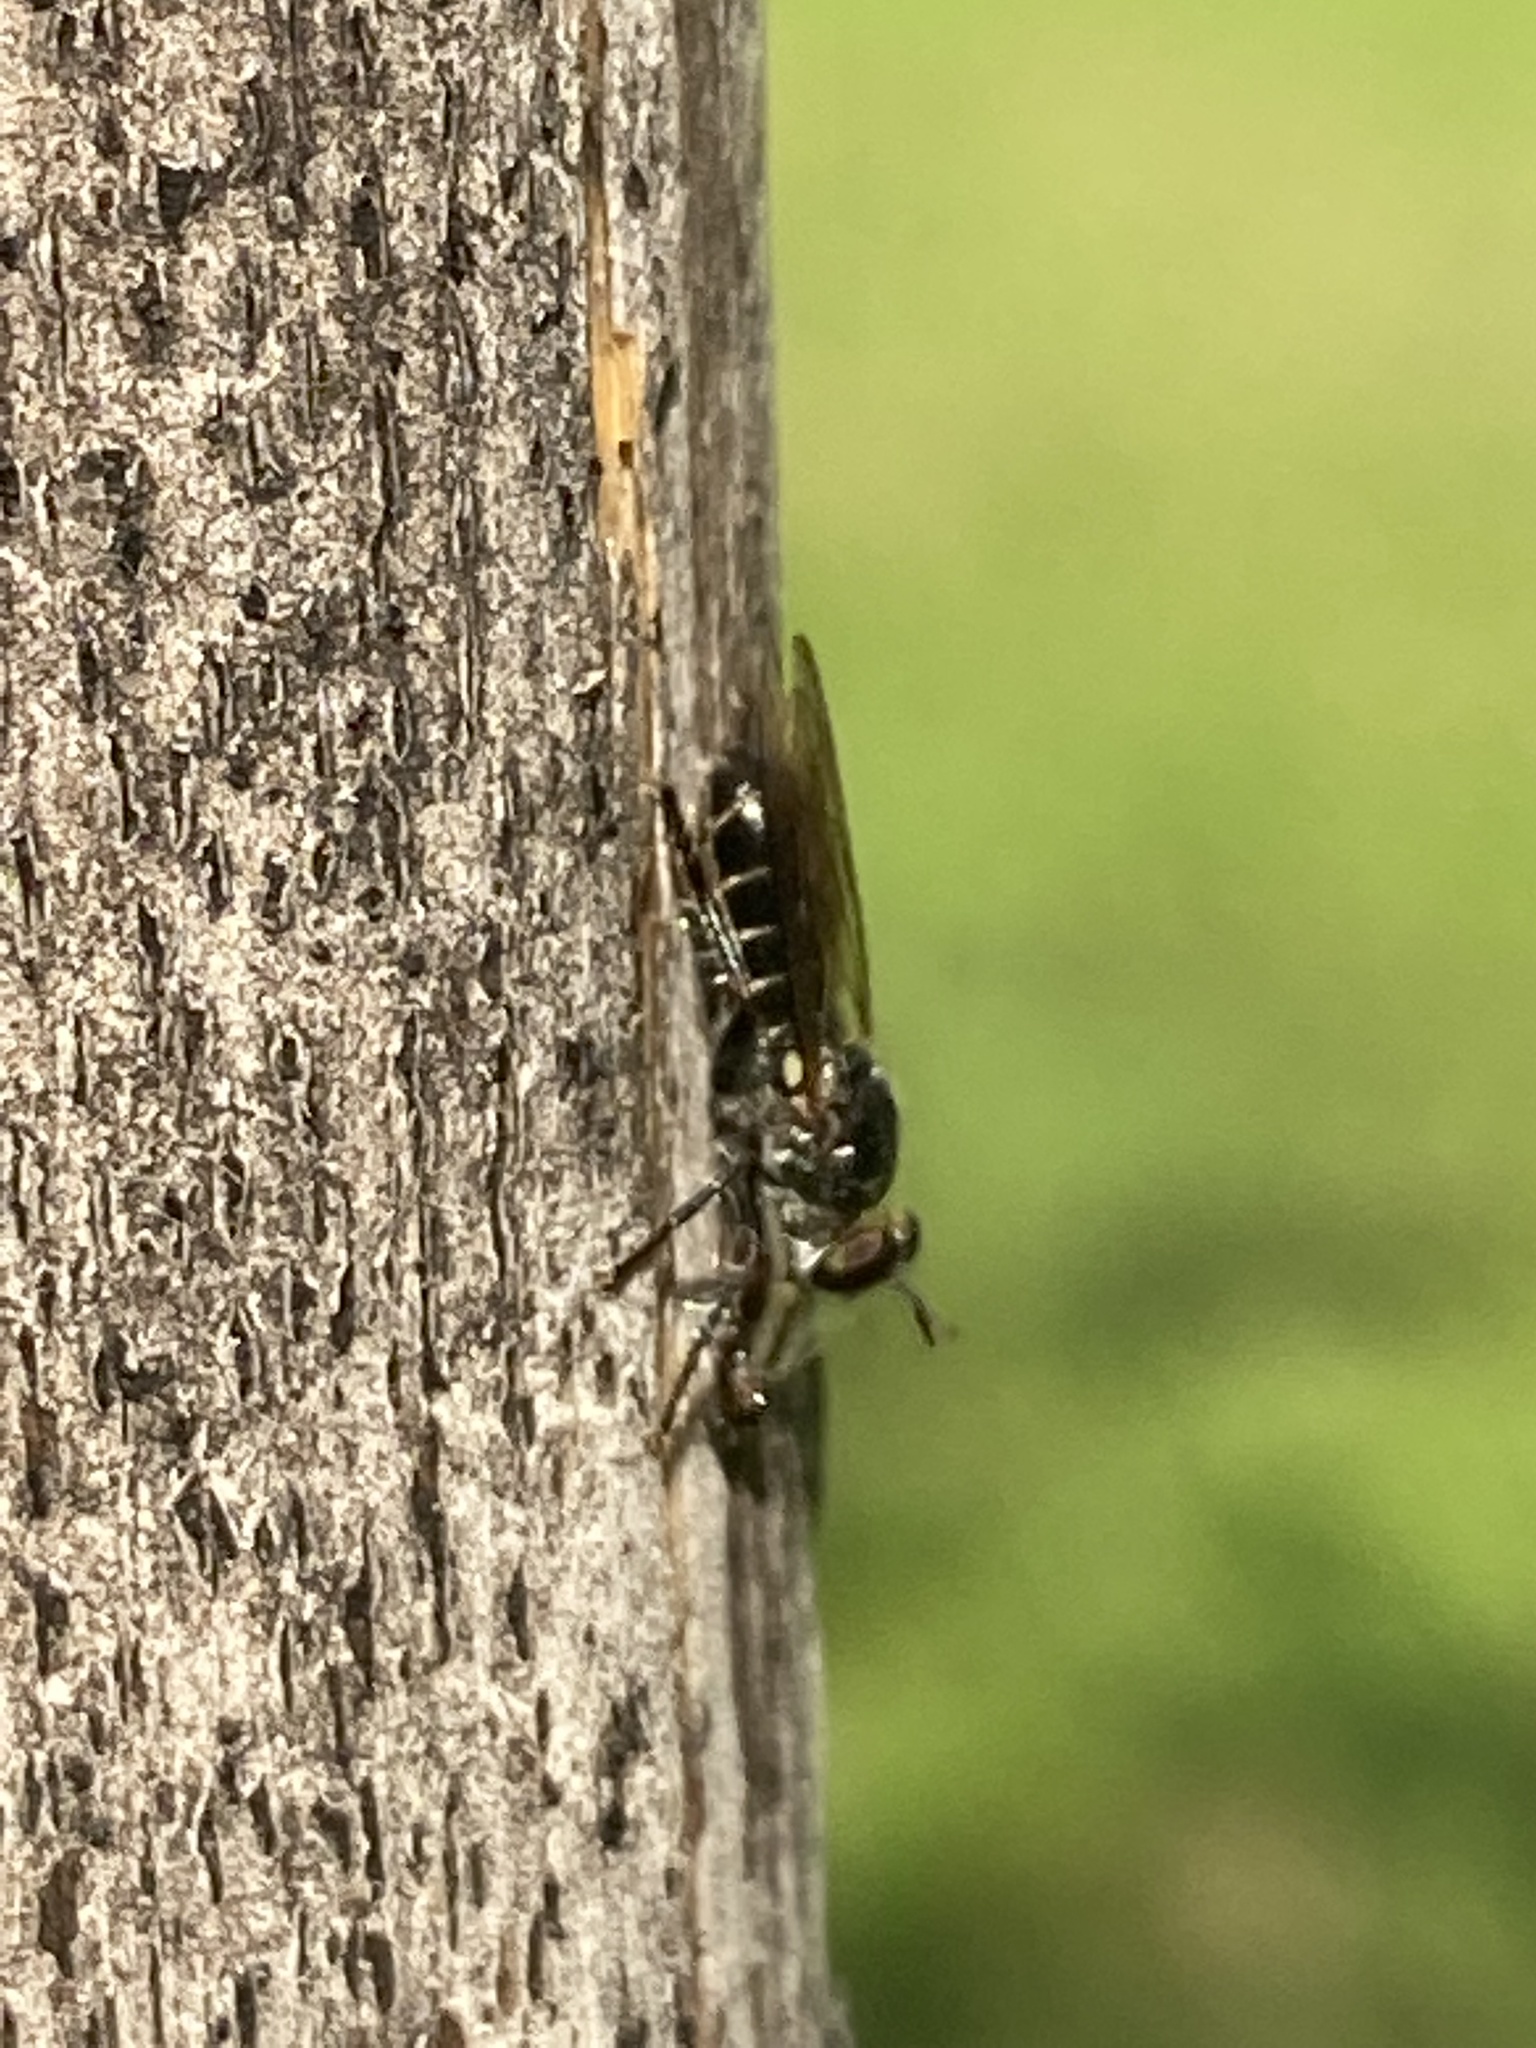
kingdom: Animalia
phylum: Arthropoda
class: Insecta
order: Diptera
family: Asilidae
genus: Atomosia
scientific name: Atomosia puella
